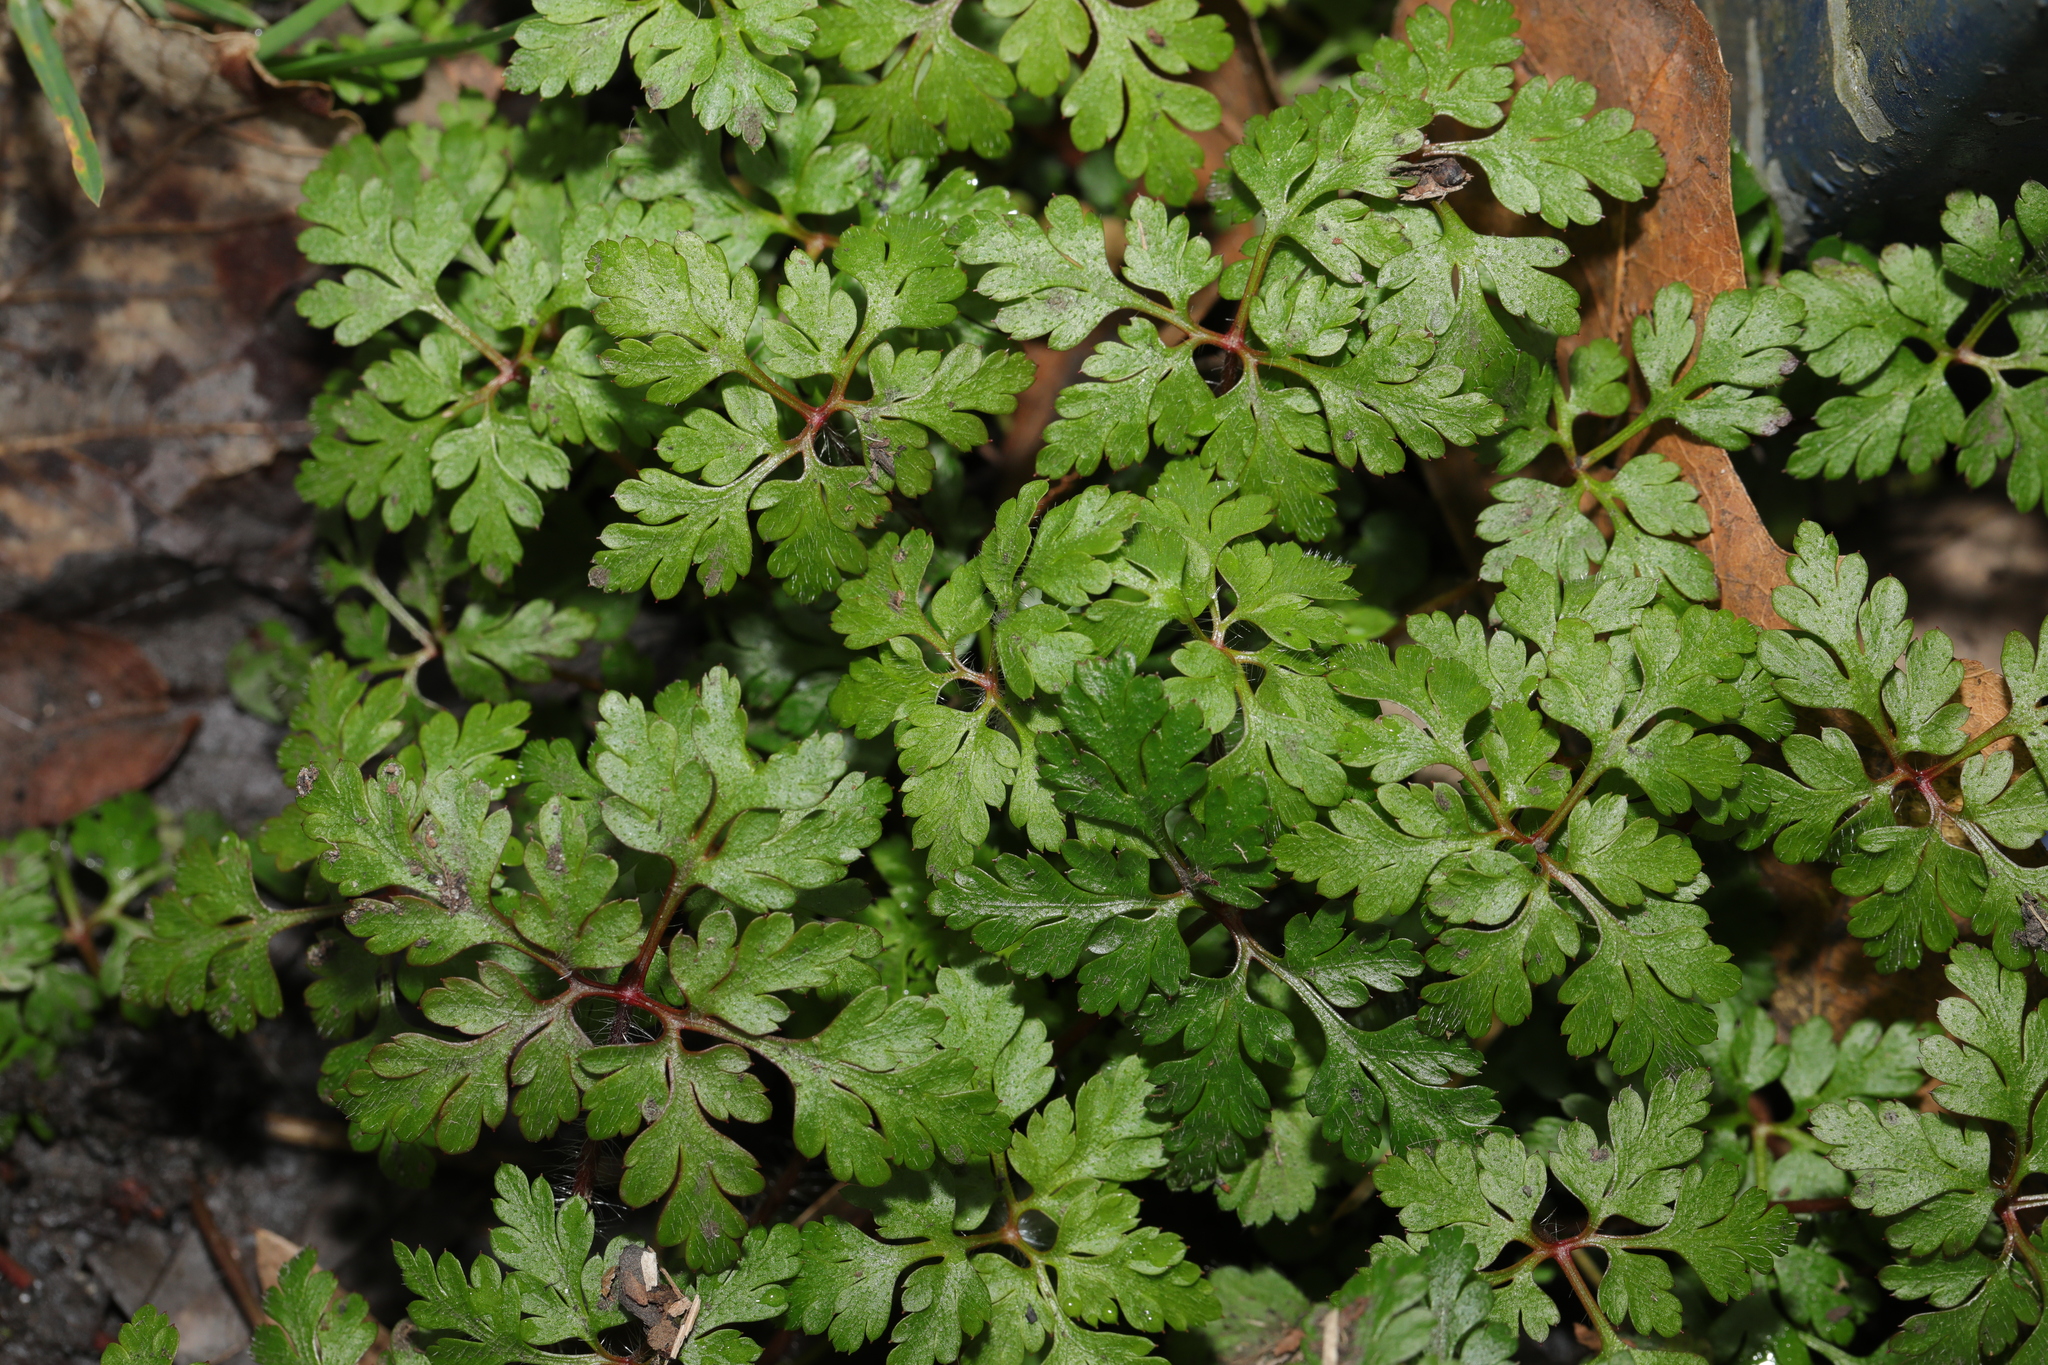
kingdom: Plantae
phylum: Tracheophyta
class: Magnoliopsida
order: Geraniales
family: Geraniaceae
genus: Geranium
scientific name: Geranium robertianum
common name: Herb-robert
